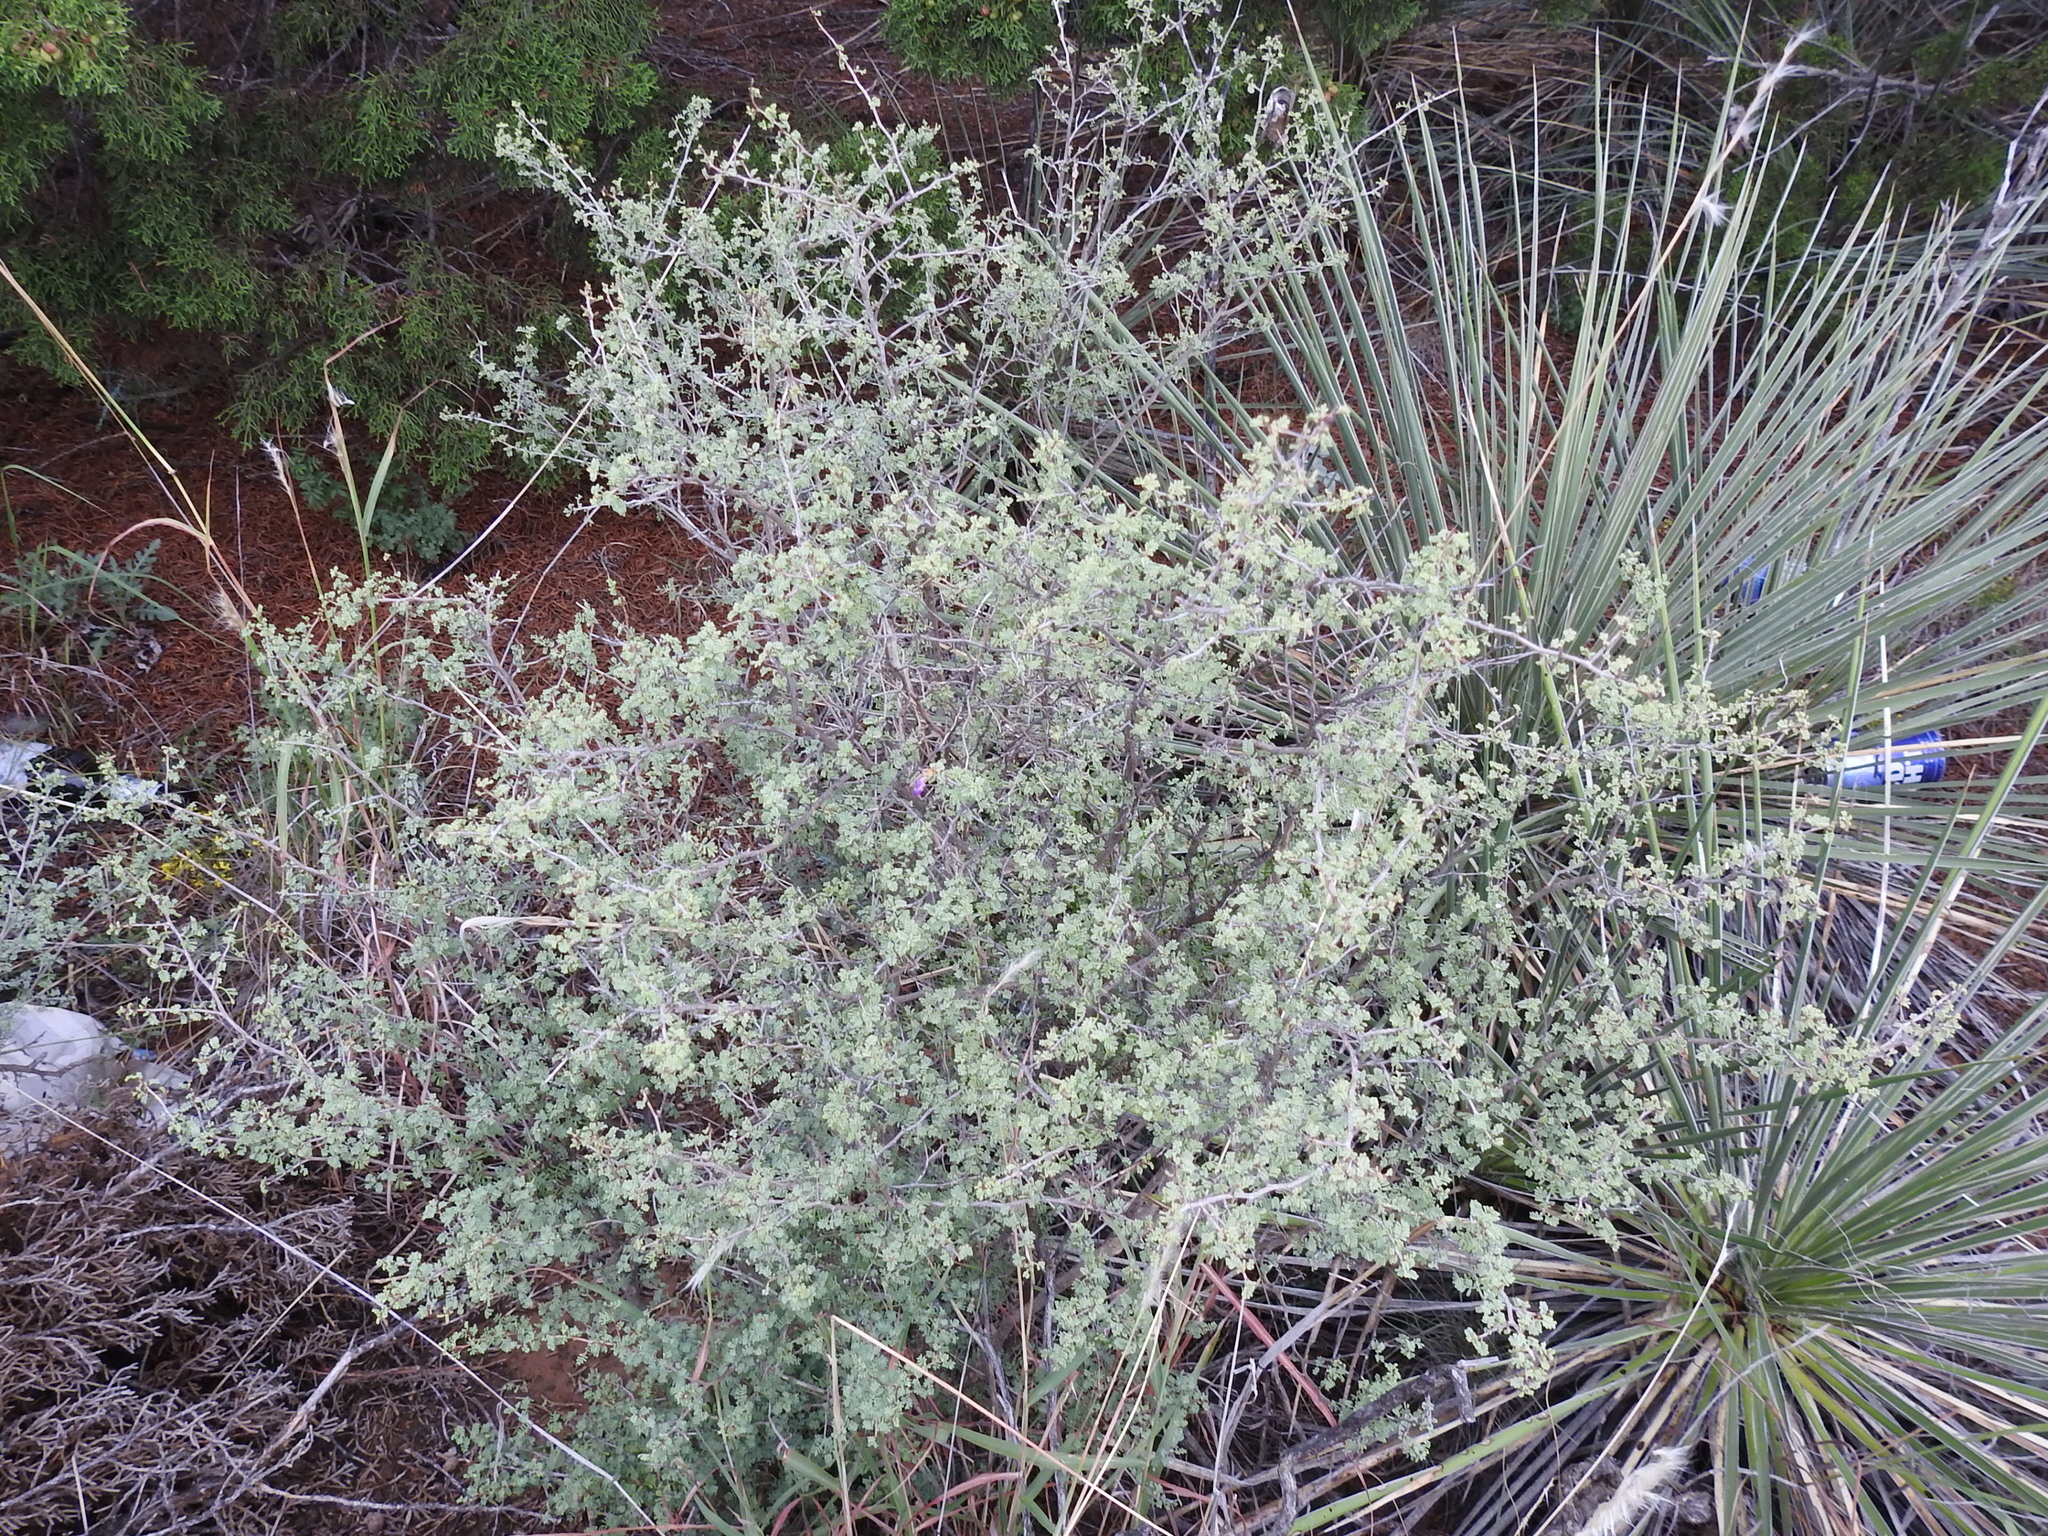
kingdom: Plantae
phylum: Tracheophyta
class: Magnoliopsida
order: Fabales
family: Fabaceae
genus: Dalea
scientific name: Dalea formosa
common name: Feather-plume dalea
